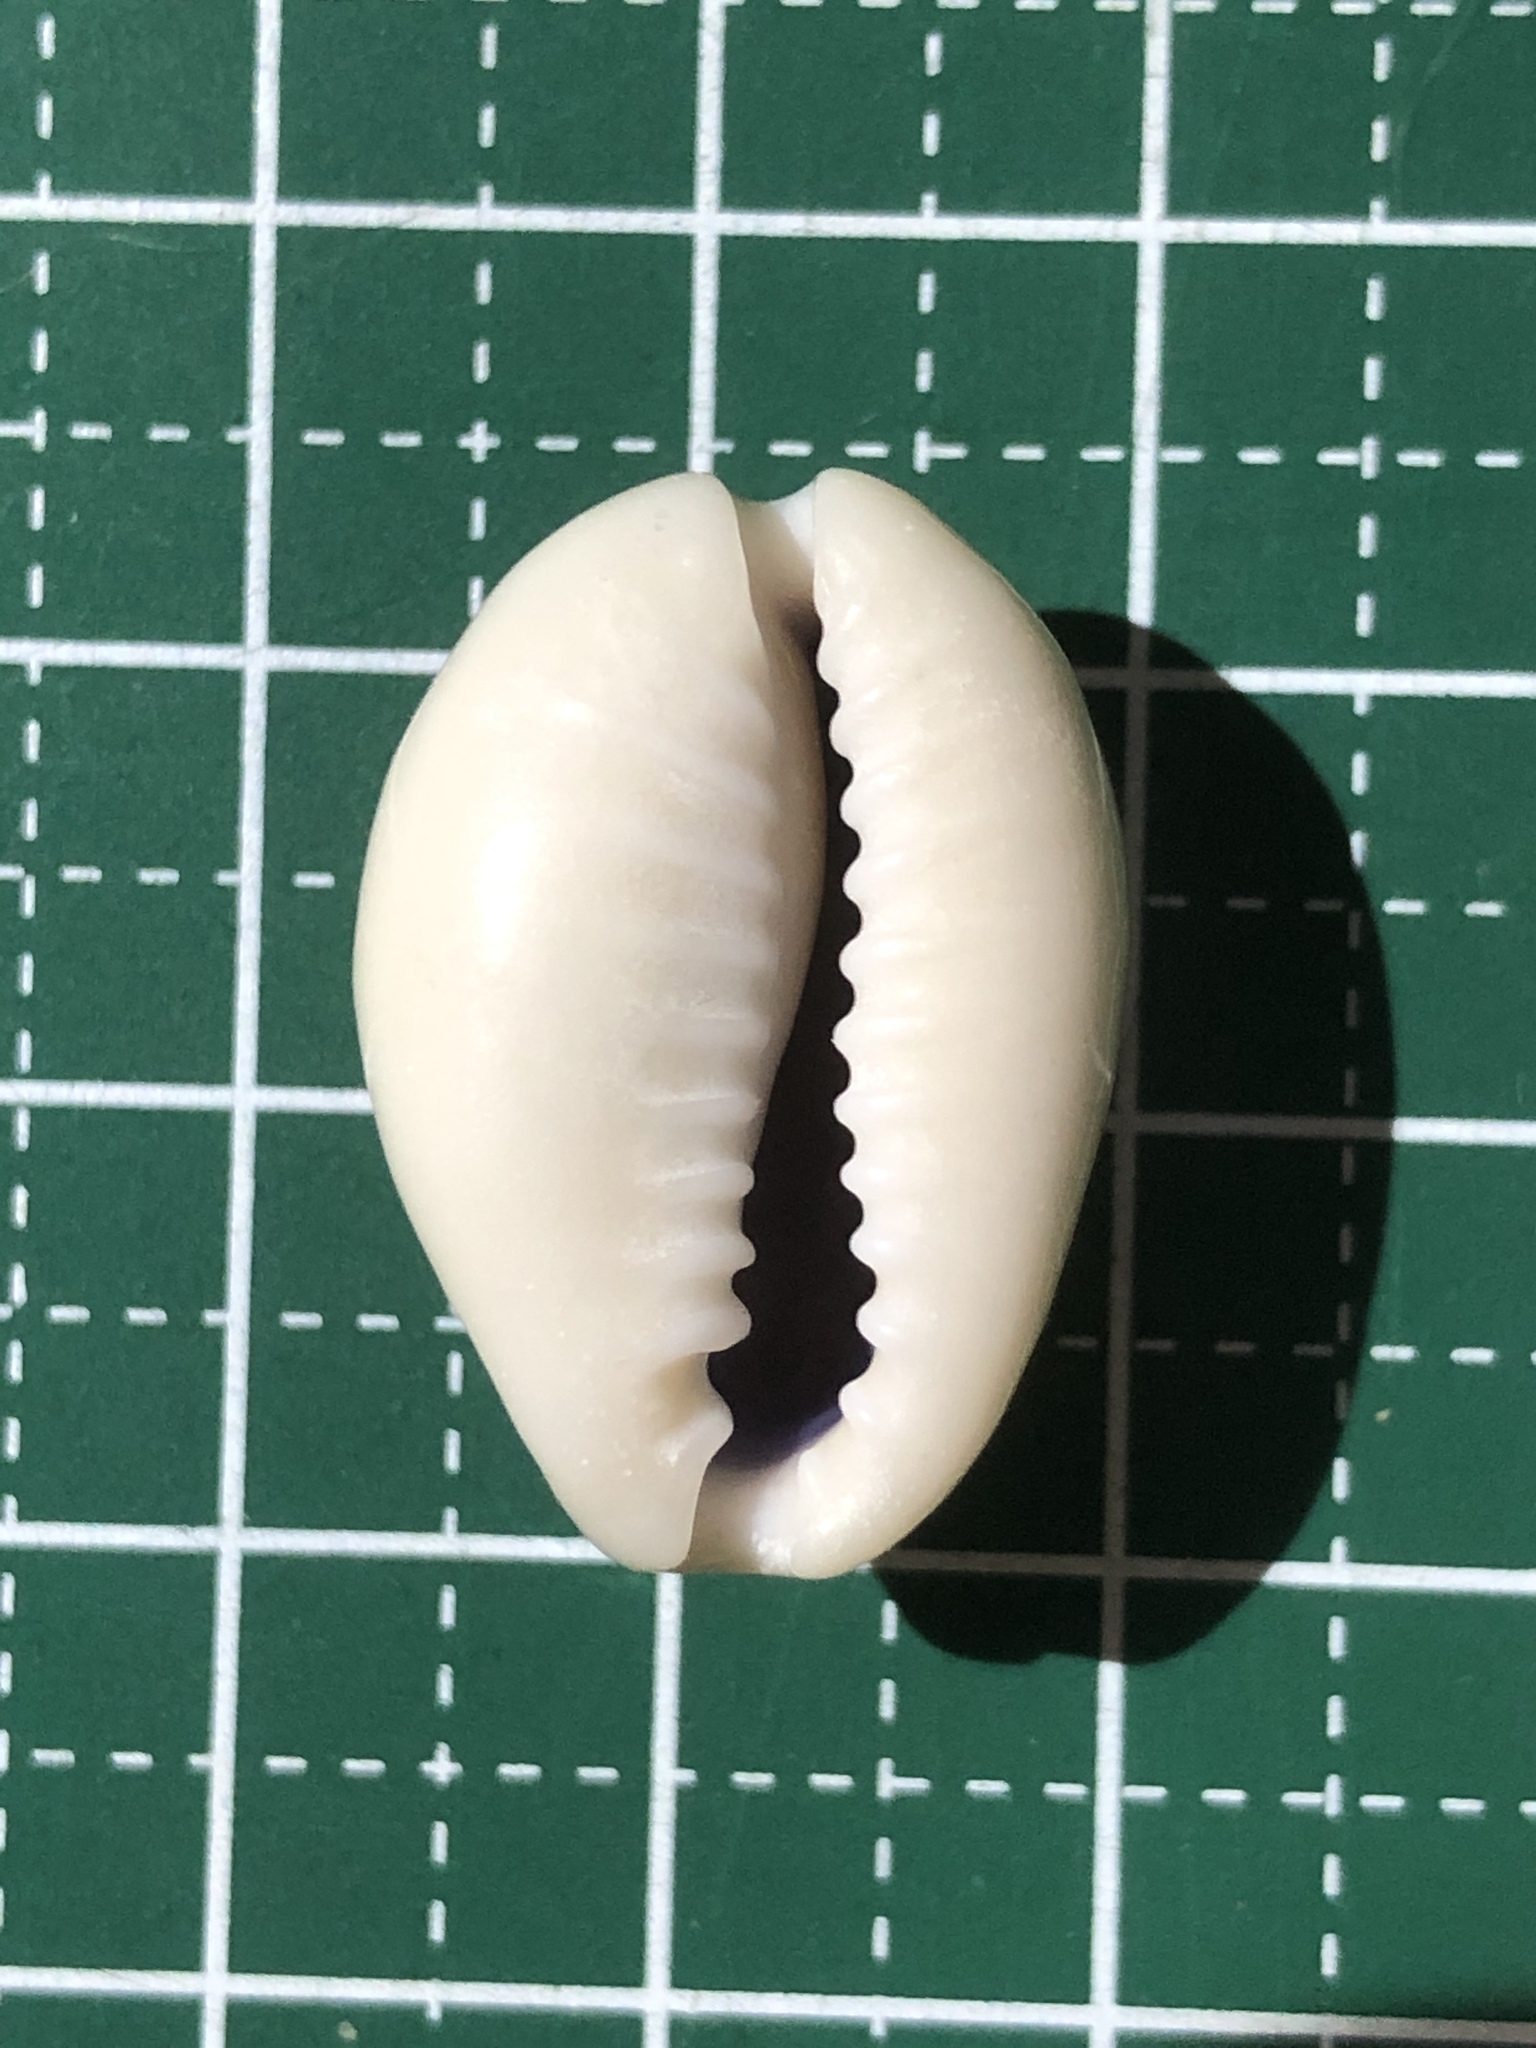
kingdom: Animalia
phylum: Mollusca
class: Gastropoda
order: Littorinimorpha
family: Cypraeidae
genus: Monetaria
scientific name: Monetaria annulus
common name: Ring cowrie
